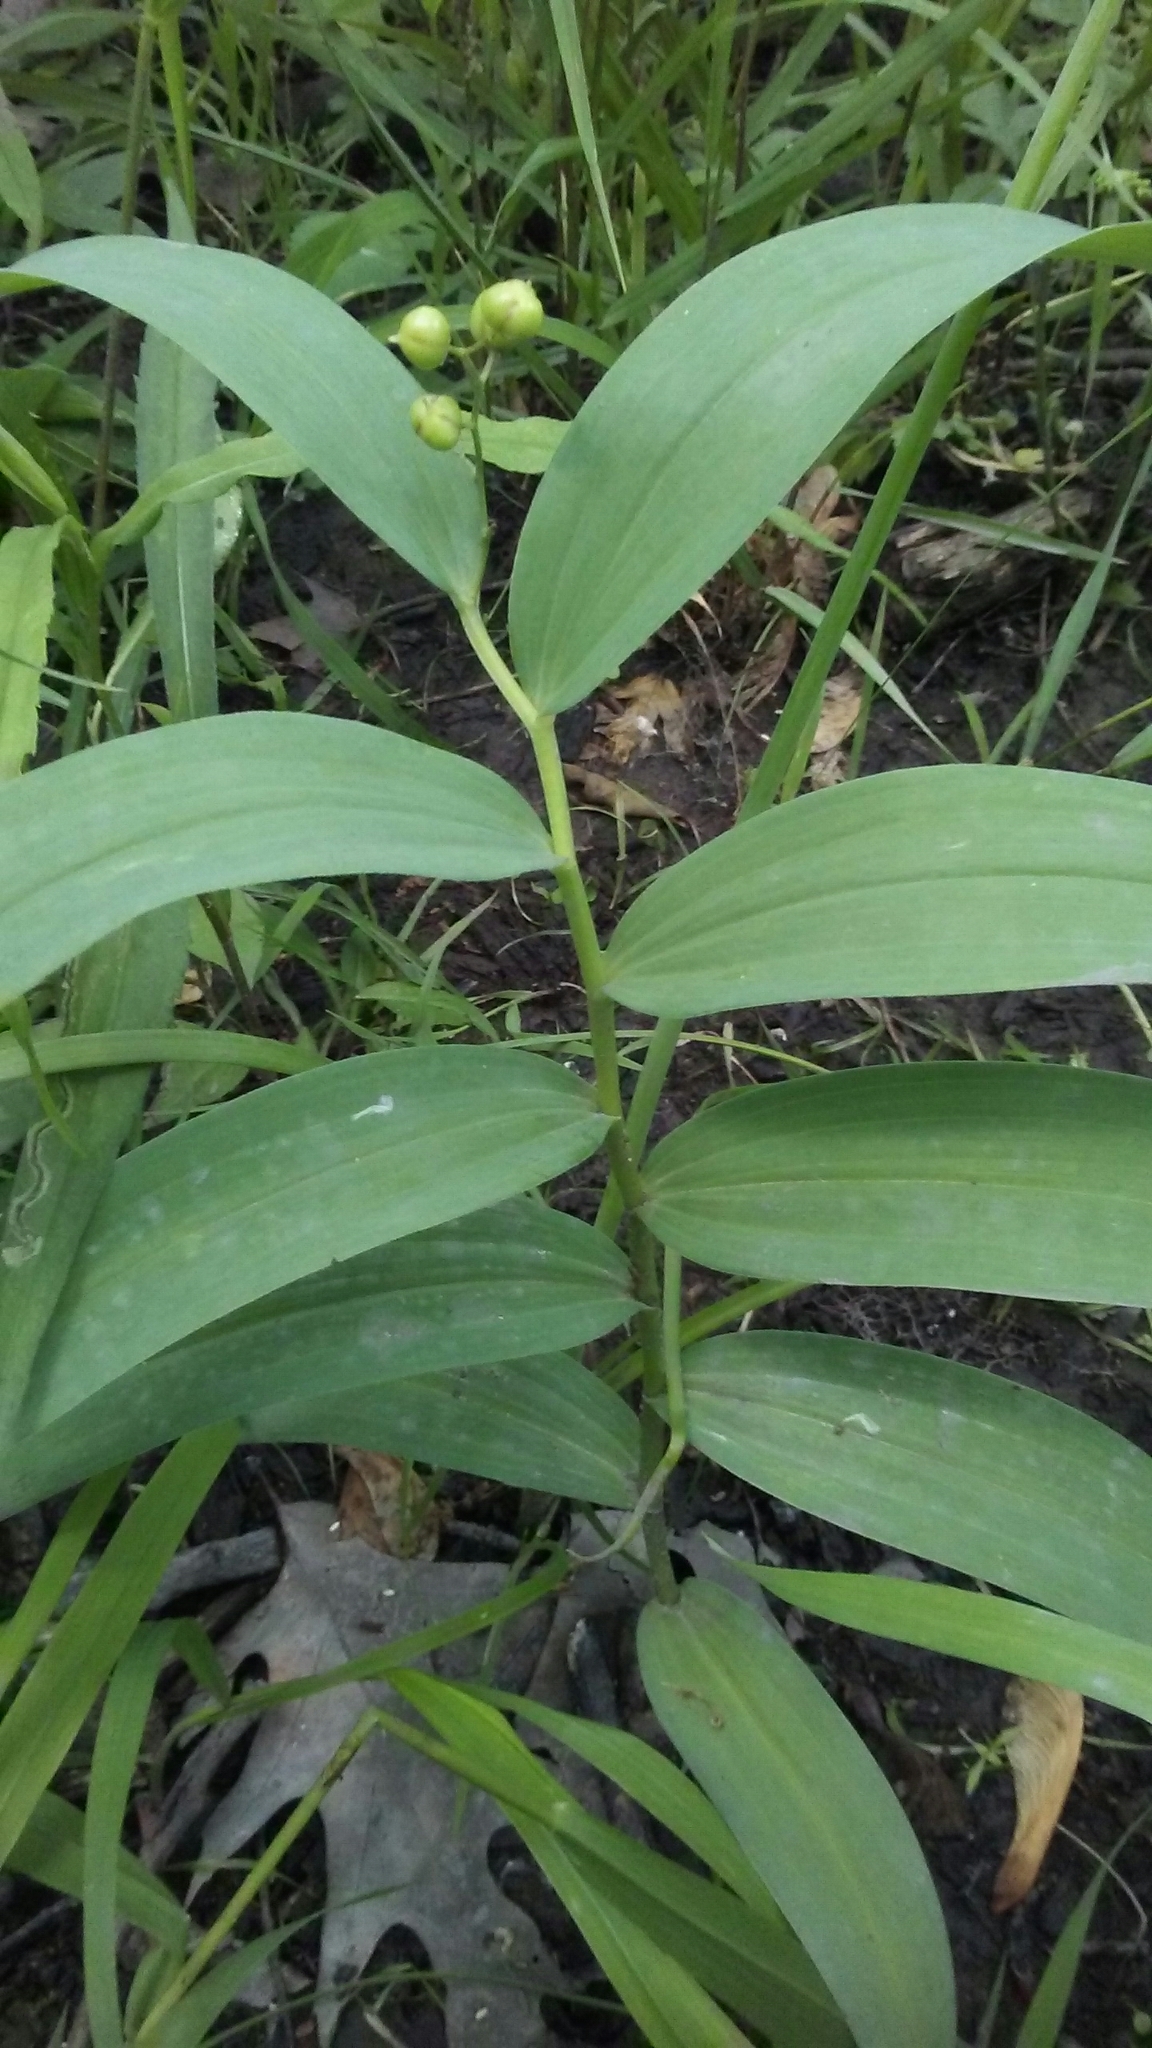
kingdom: Plantae
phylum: Tracheophyta
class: Liliopsida
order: Asparagales
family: Asparagaceae
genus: Maianthemum
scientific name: Maianthemum stellatum
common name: Little false solomon's seal
